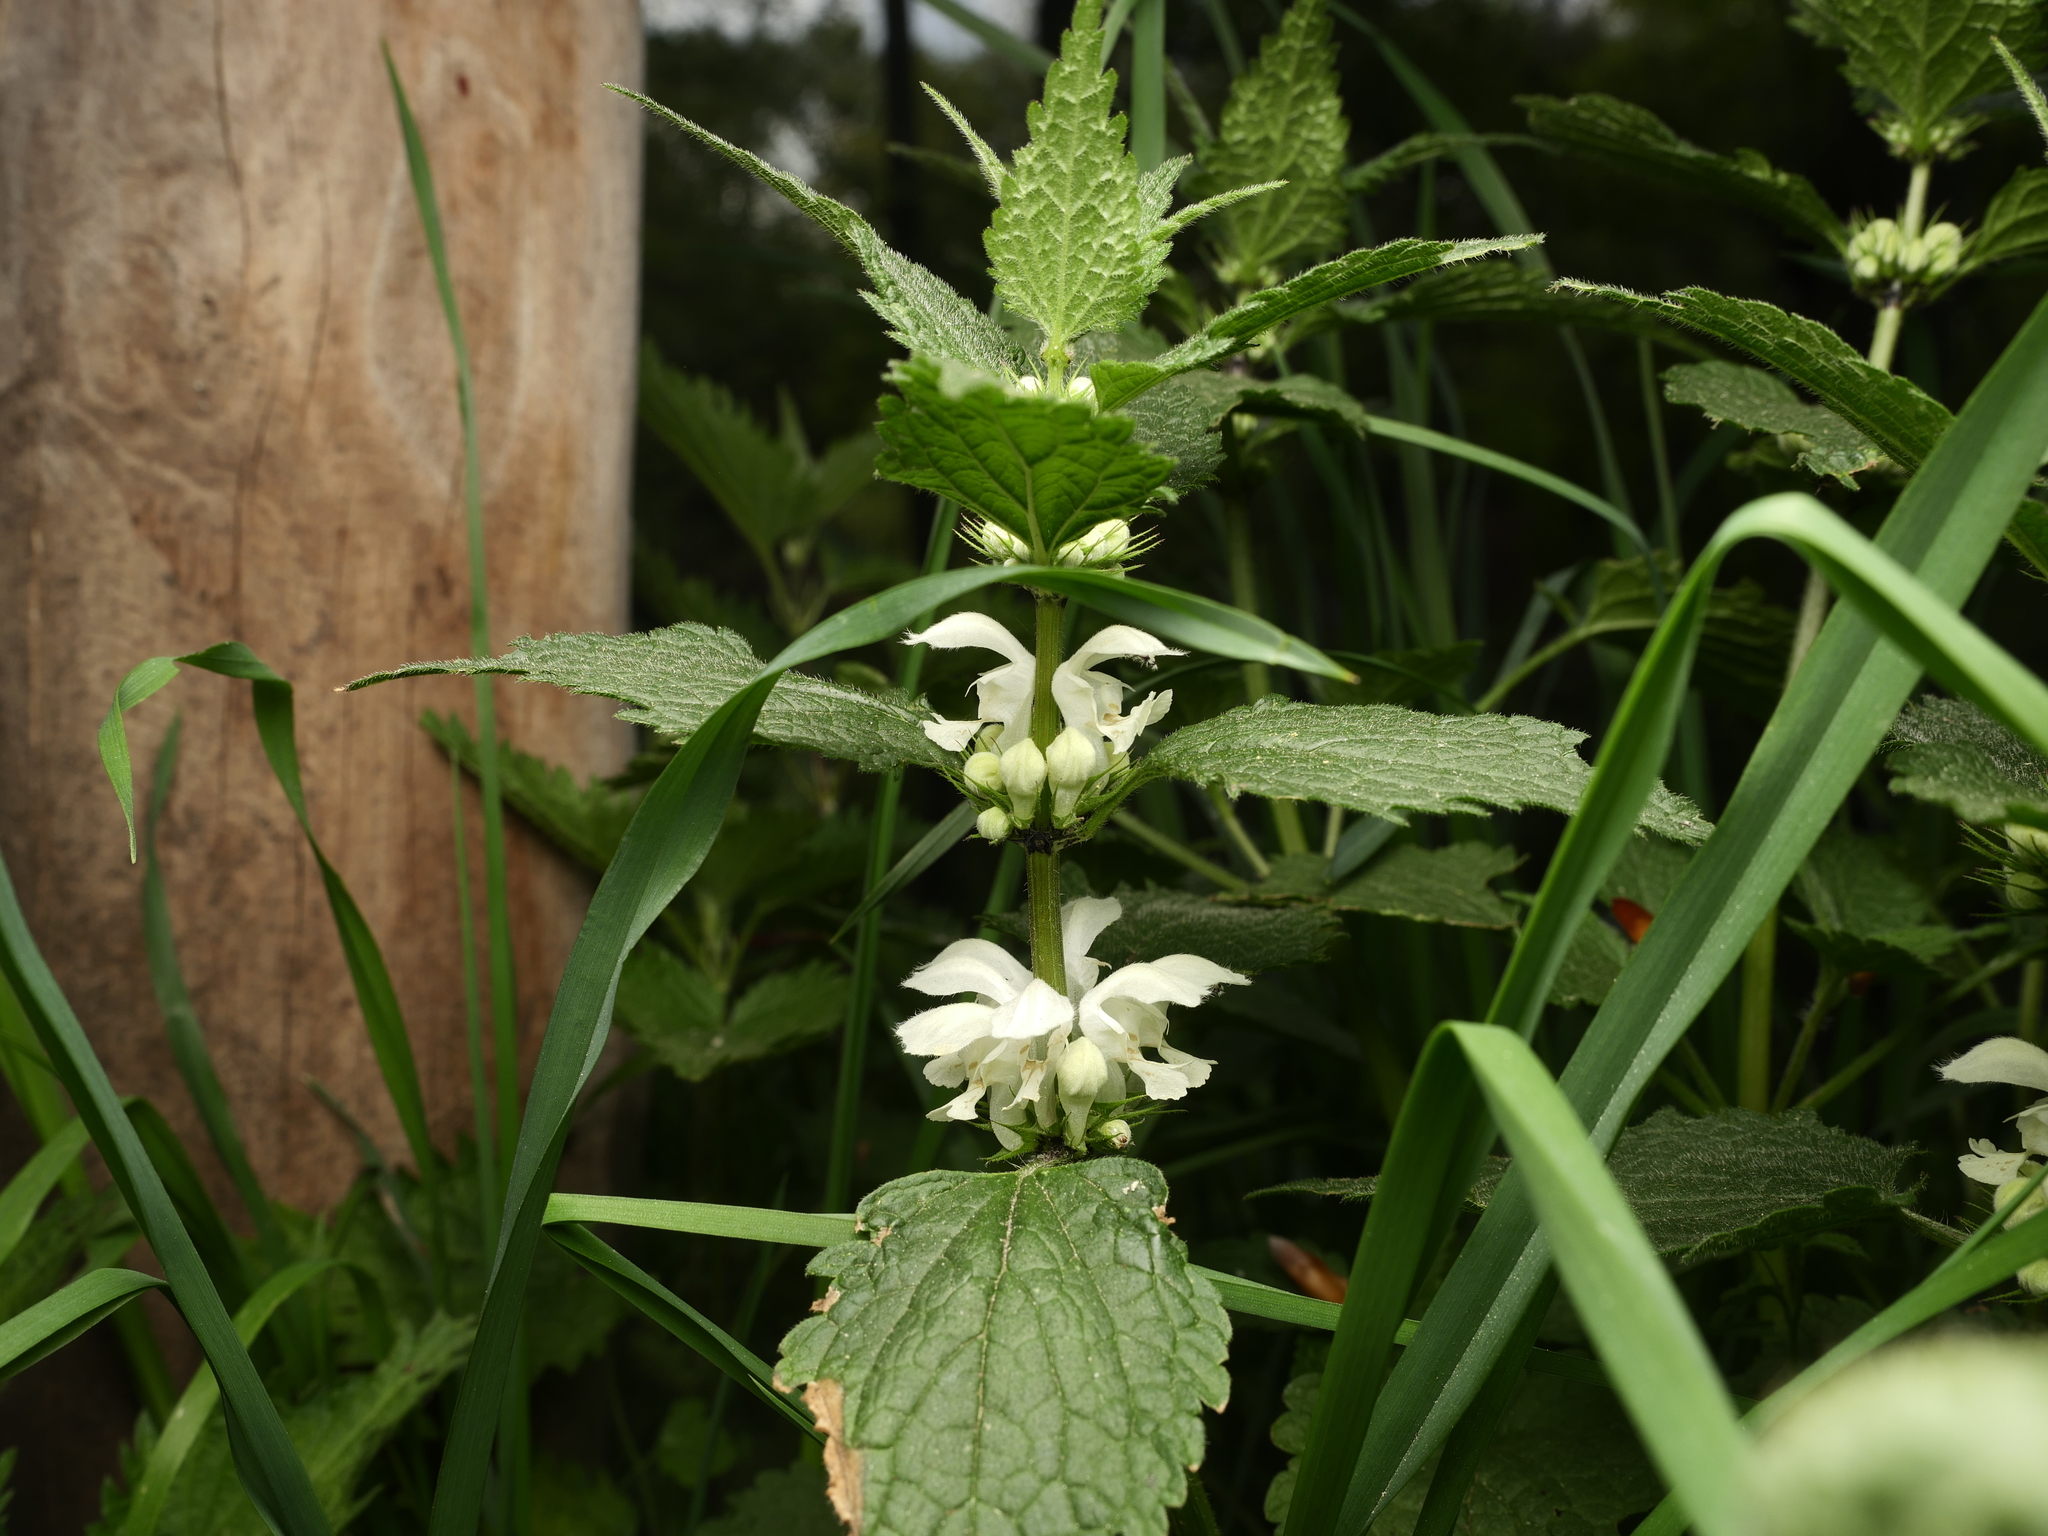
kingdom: Plantae
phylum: Tracheophyta
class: Magnoliopsida
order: Lamiales
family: Lamiaceae
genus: Lamium
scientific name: Lamium album
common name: White dead-nettle
